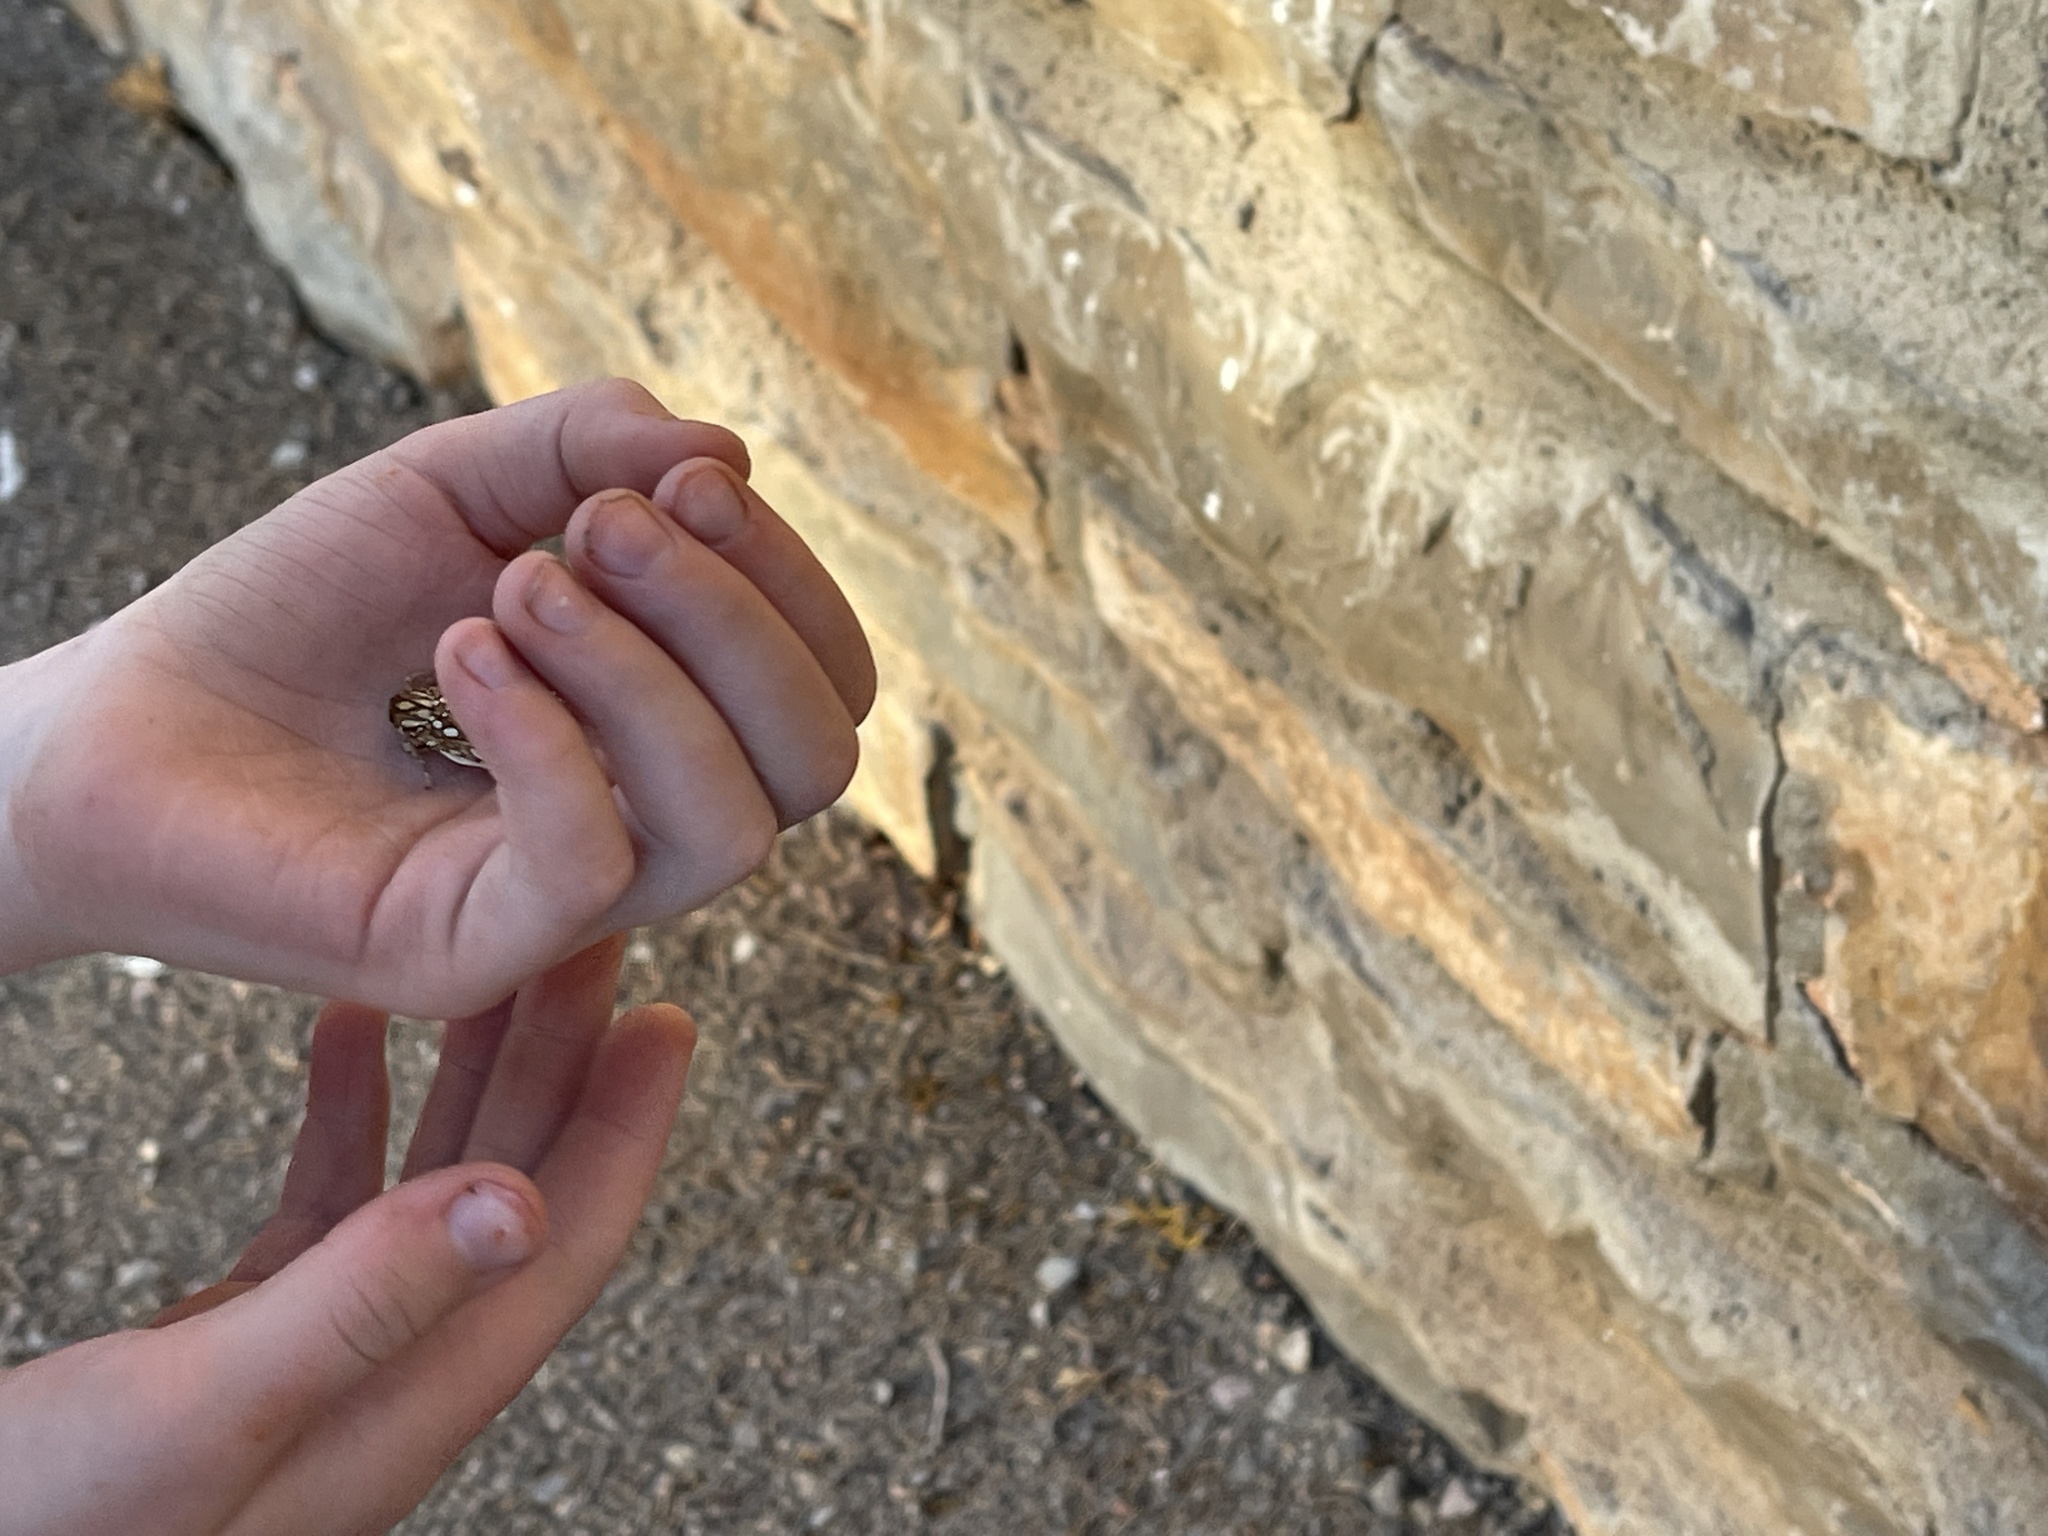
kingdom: Animalia
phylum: Arthropoda
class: Insecta
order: Lepidoptera
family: Erebidae
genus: Lophocampa
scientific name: Lophocampa argentata
